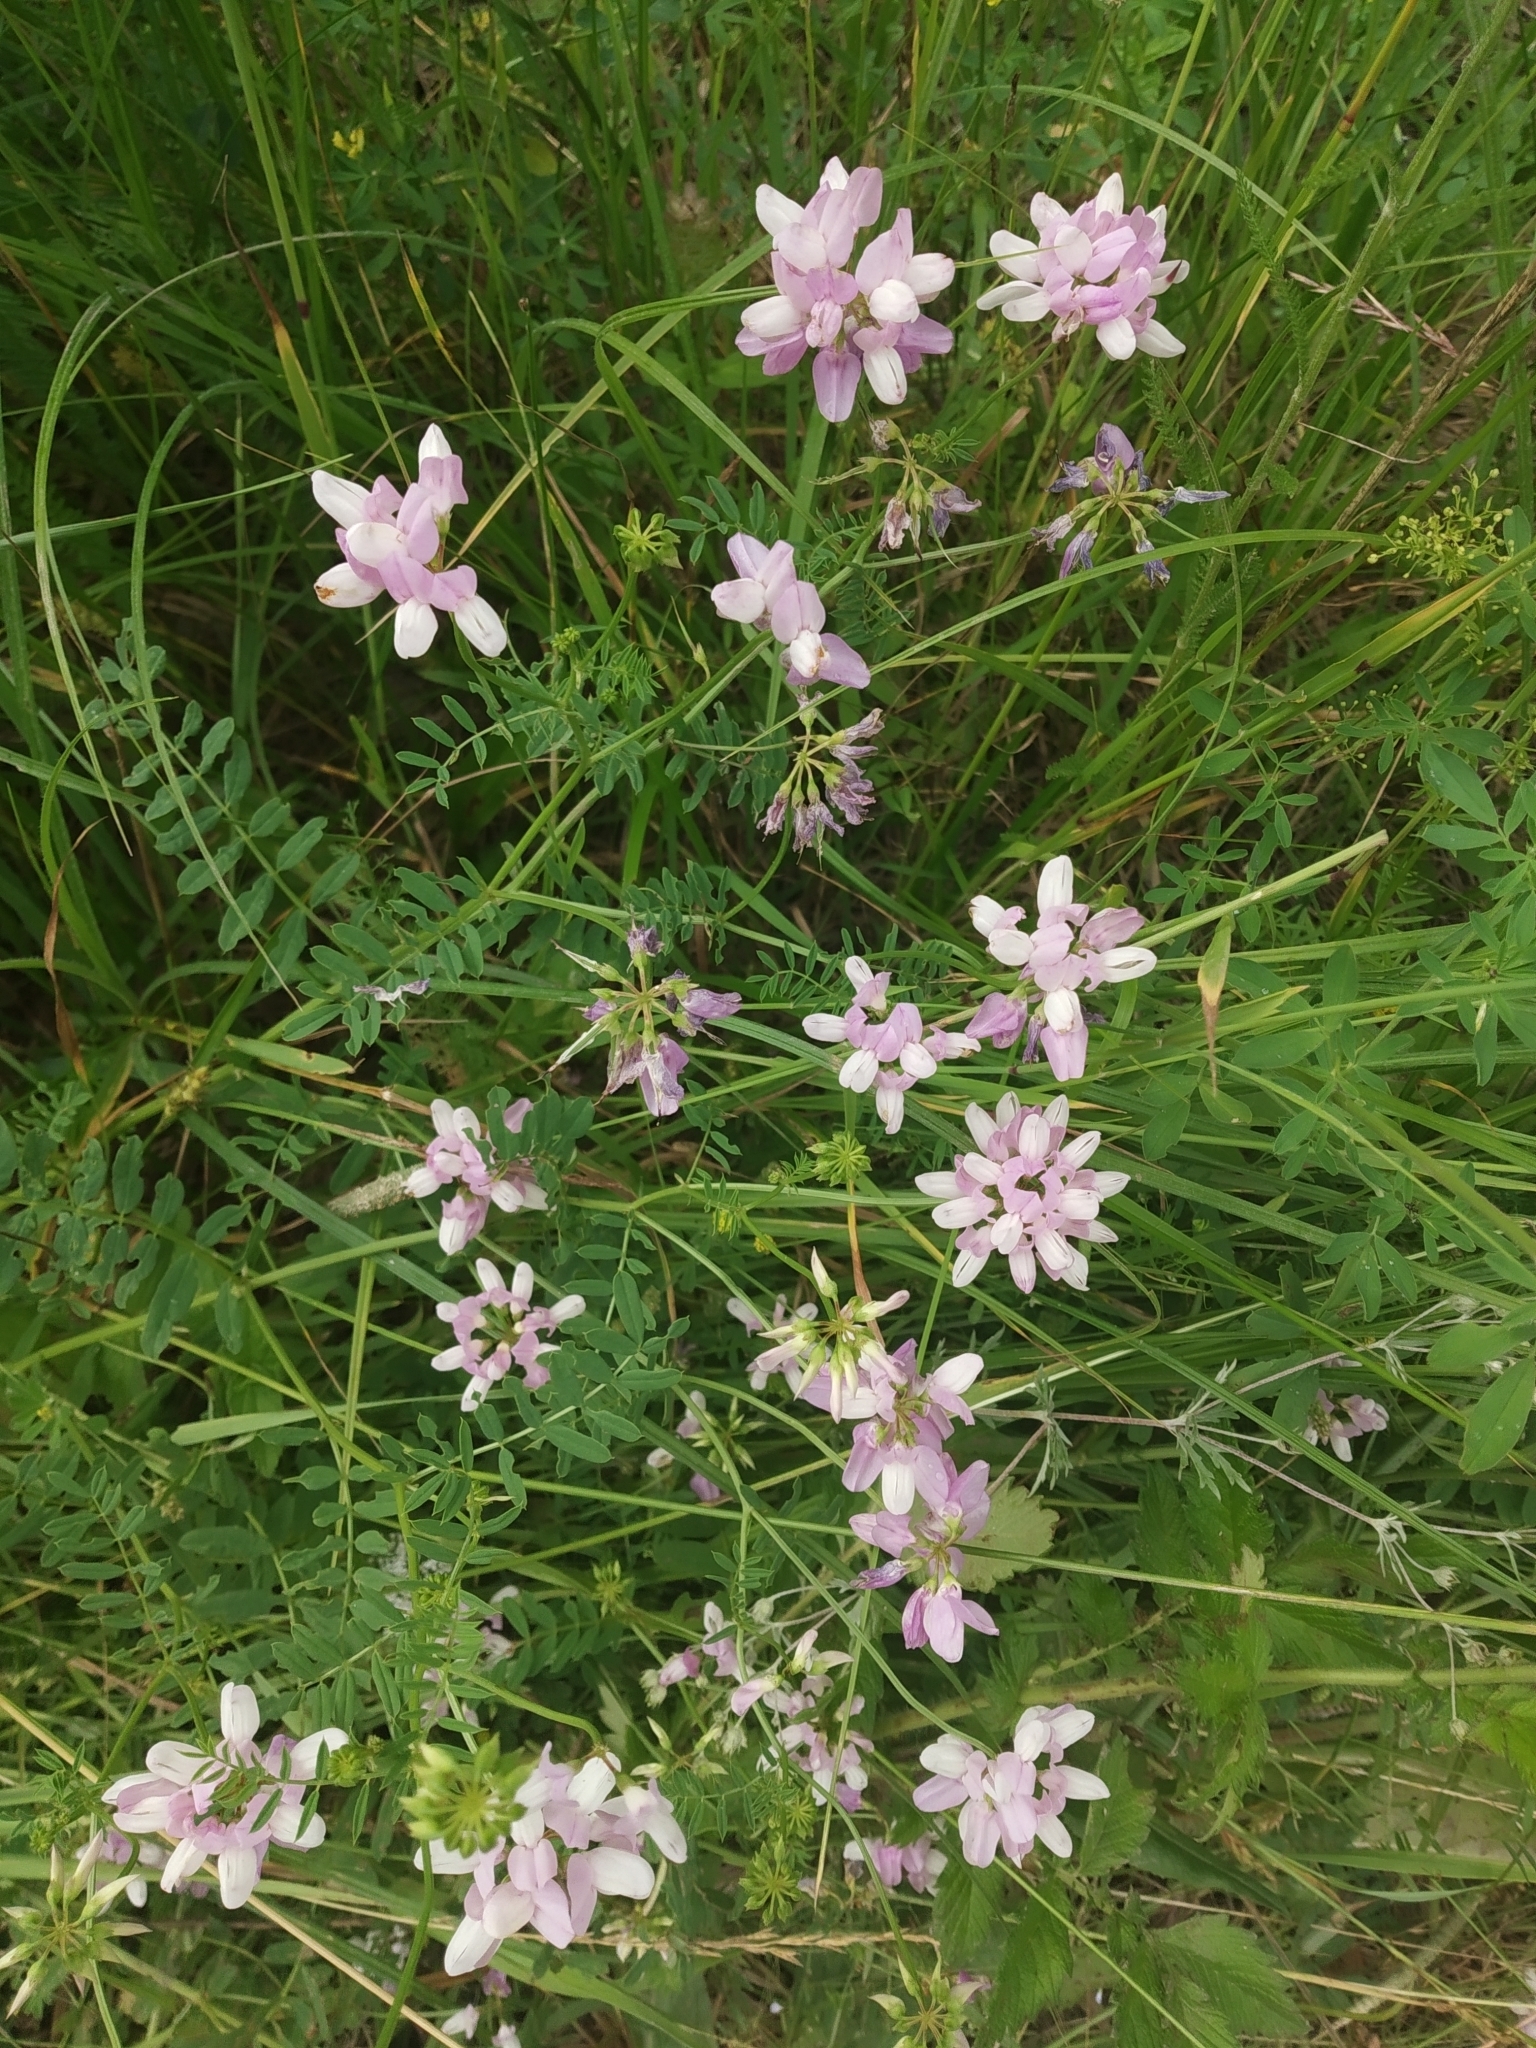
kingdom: Plantae
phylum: Tracheophyta
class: Magnoliopsida
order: Fabales
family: Fabaceae
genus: Coronilla
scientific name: Coronilla varia
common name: Crownvetch
